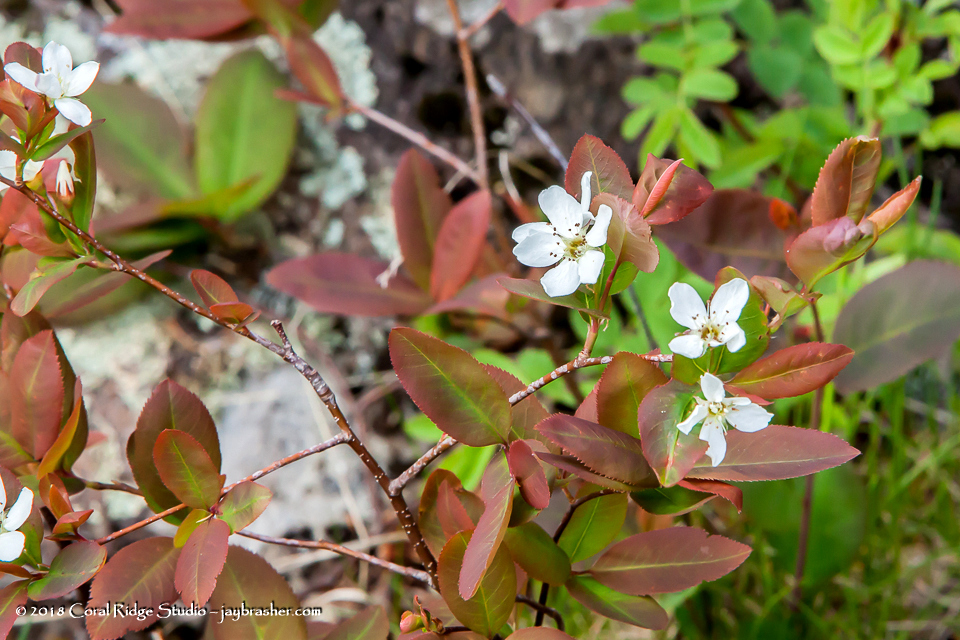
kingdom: Plantae
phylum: Tracheophyta
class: Magnoliopsida
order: Rosales
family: Rosaceae
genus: Amelanchier
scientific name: Amelanchier alnifolia
